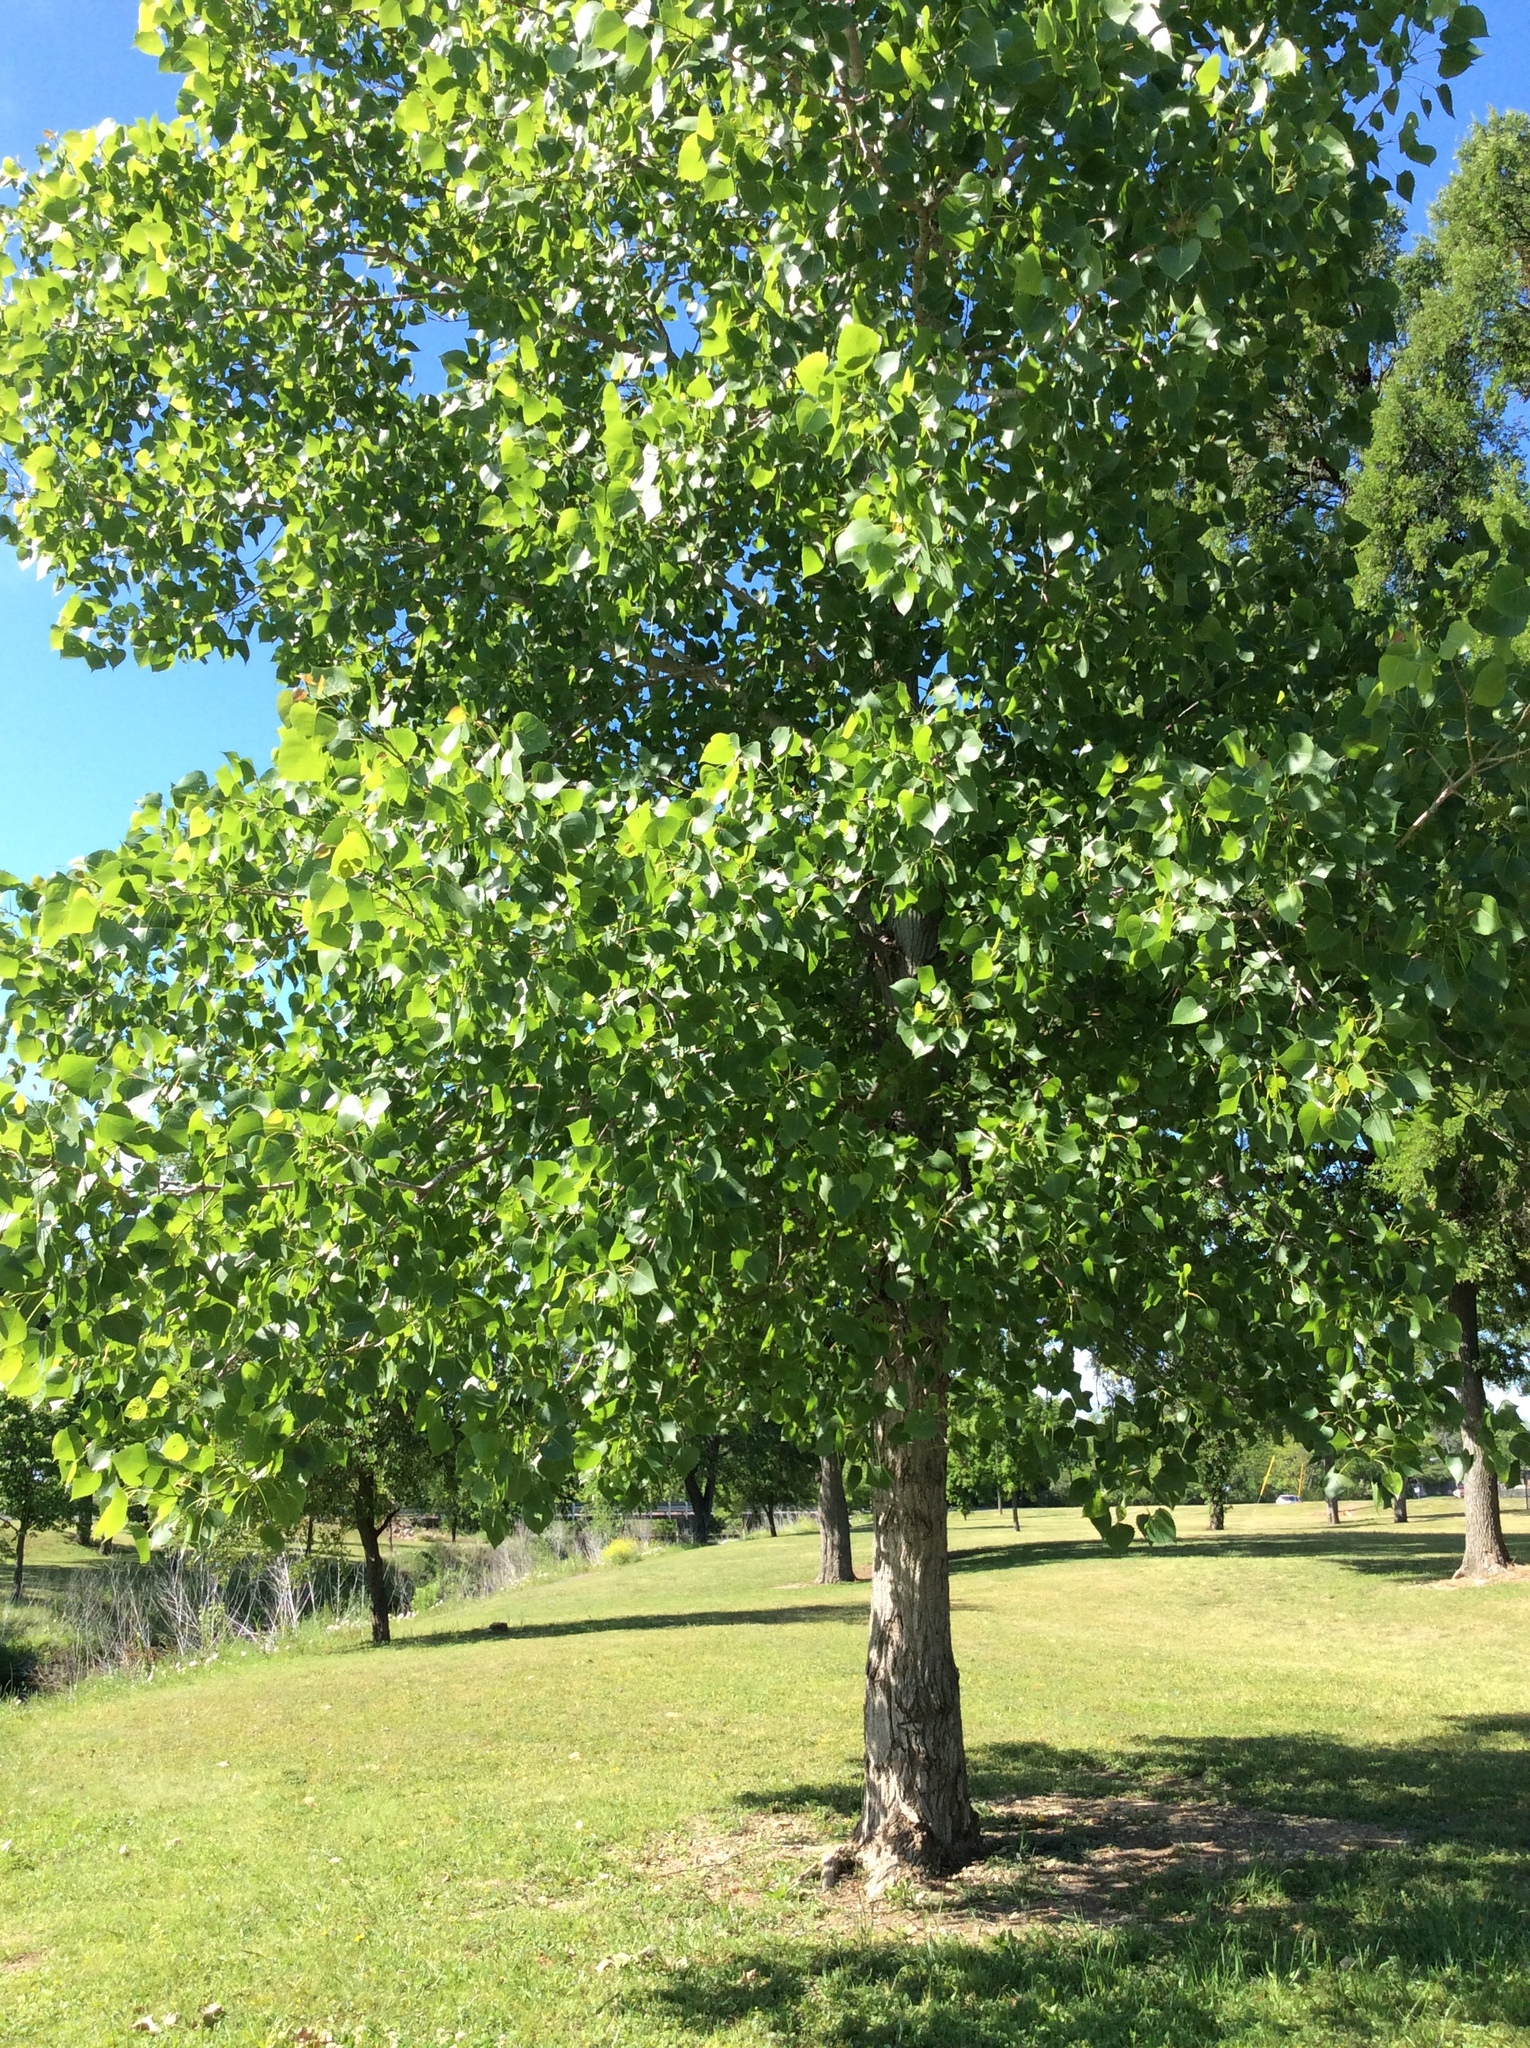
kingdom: Plantae
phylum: Tracheophyta
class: Magnoliopsida
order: Malpighiales
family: Salicaceae
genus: Populus
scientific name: Populus deltoides
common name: Eastern cottonwood
